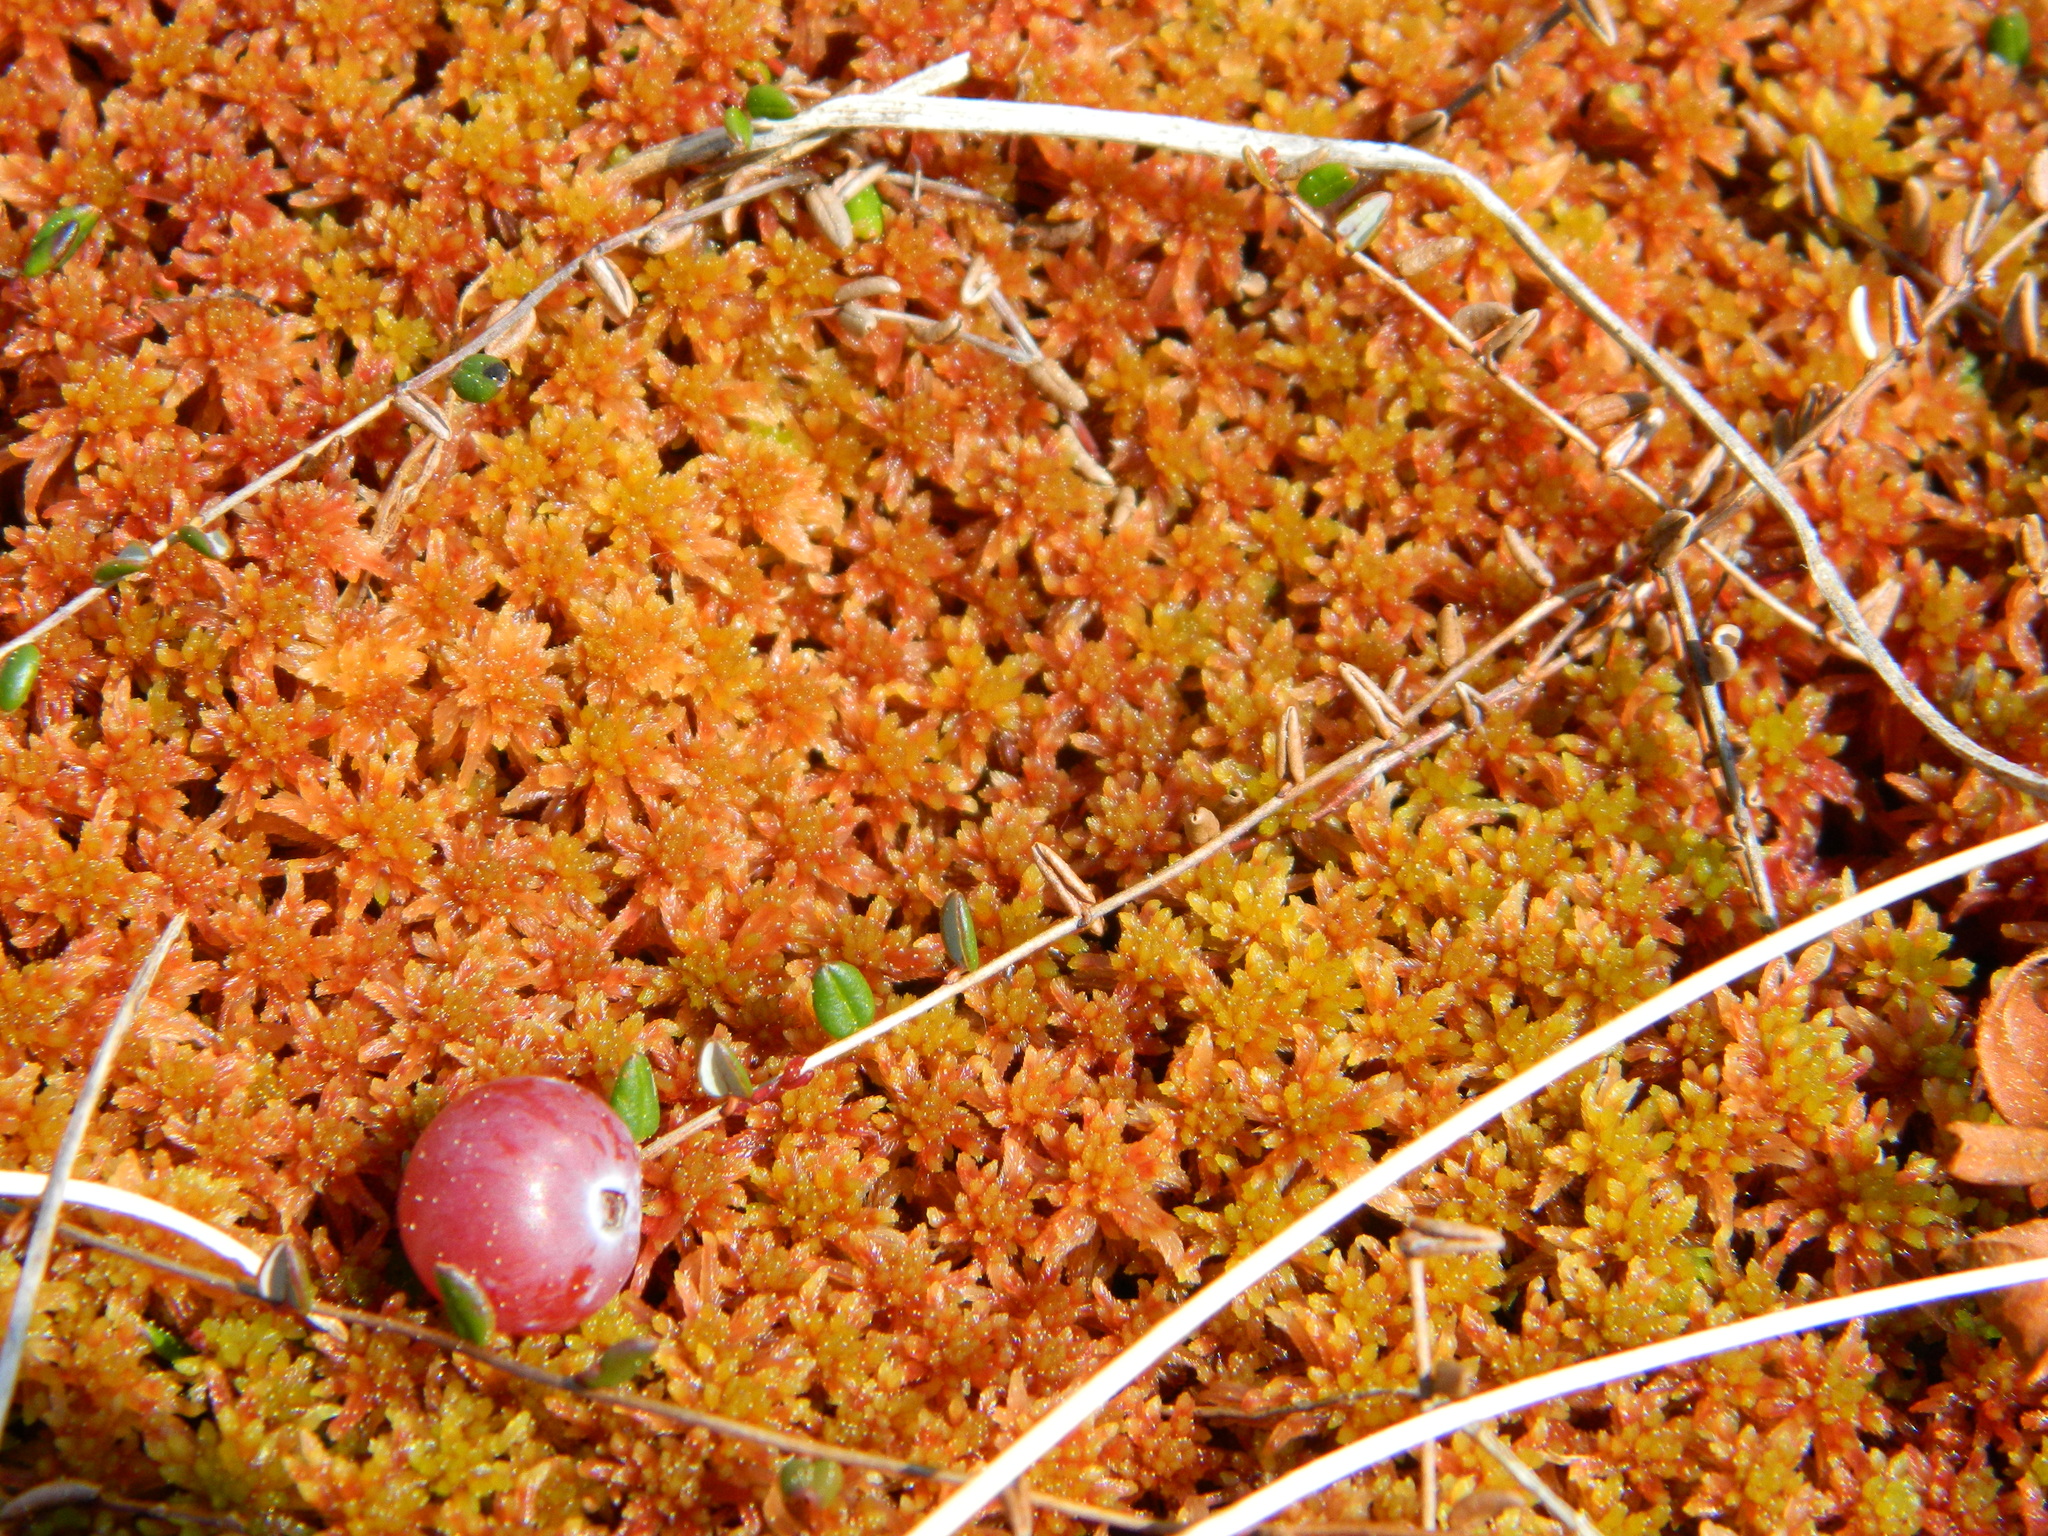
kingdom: Plantae
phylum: Tracheophyta
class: Magnoliopsida
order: Ericales
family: Ericaceae
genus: Vaccinium
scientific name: Vaccinium oxycoccos
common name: Cranberry
